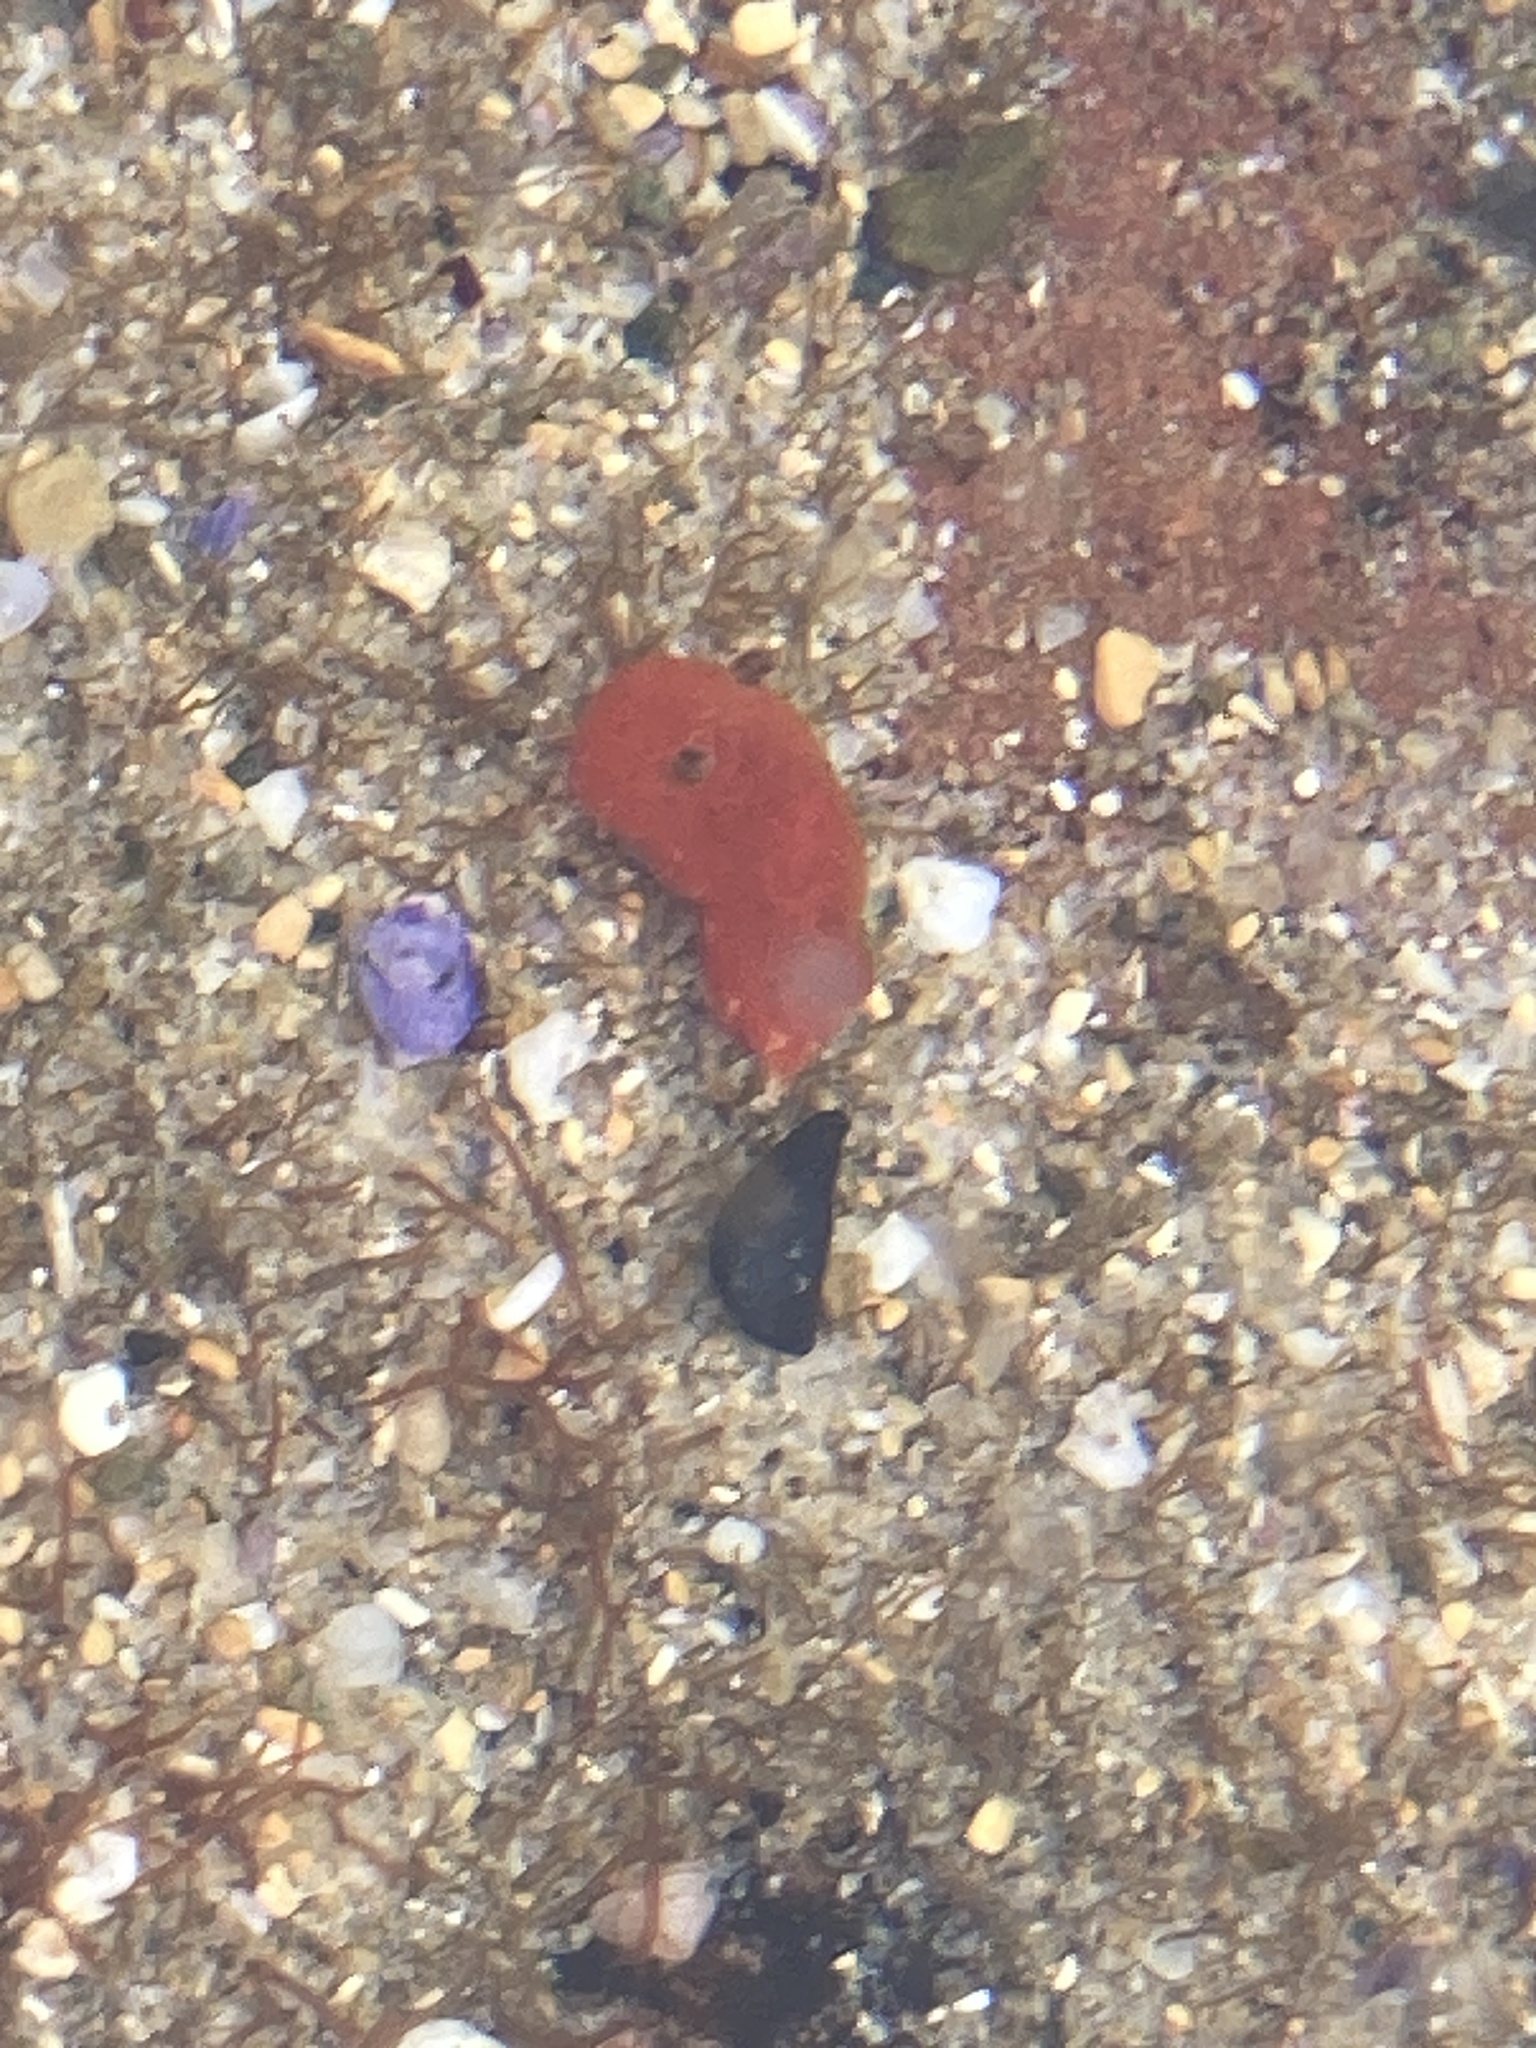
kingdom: Animalia
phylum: Mollusca
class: Gastropoda
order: Nudibranchia
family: Discodorididae
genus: Rostanga
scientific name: Rostanga arbutus
